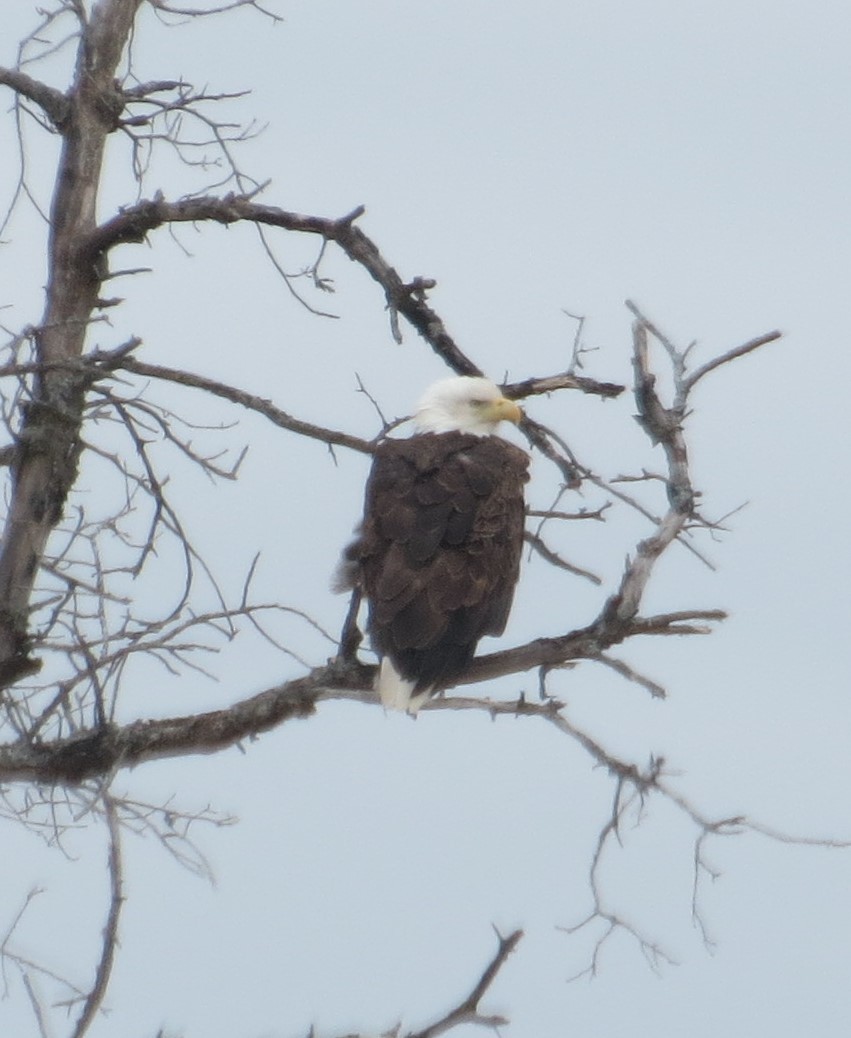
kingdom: Animalia
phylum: Chordata
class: Aves
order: Accipitriformes
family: Accipitridae
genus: Haliaeetus
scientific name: Haliaeetus leucocephalus
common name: Bald eagle
